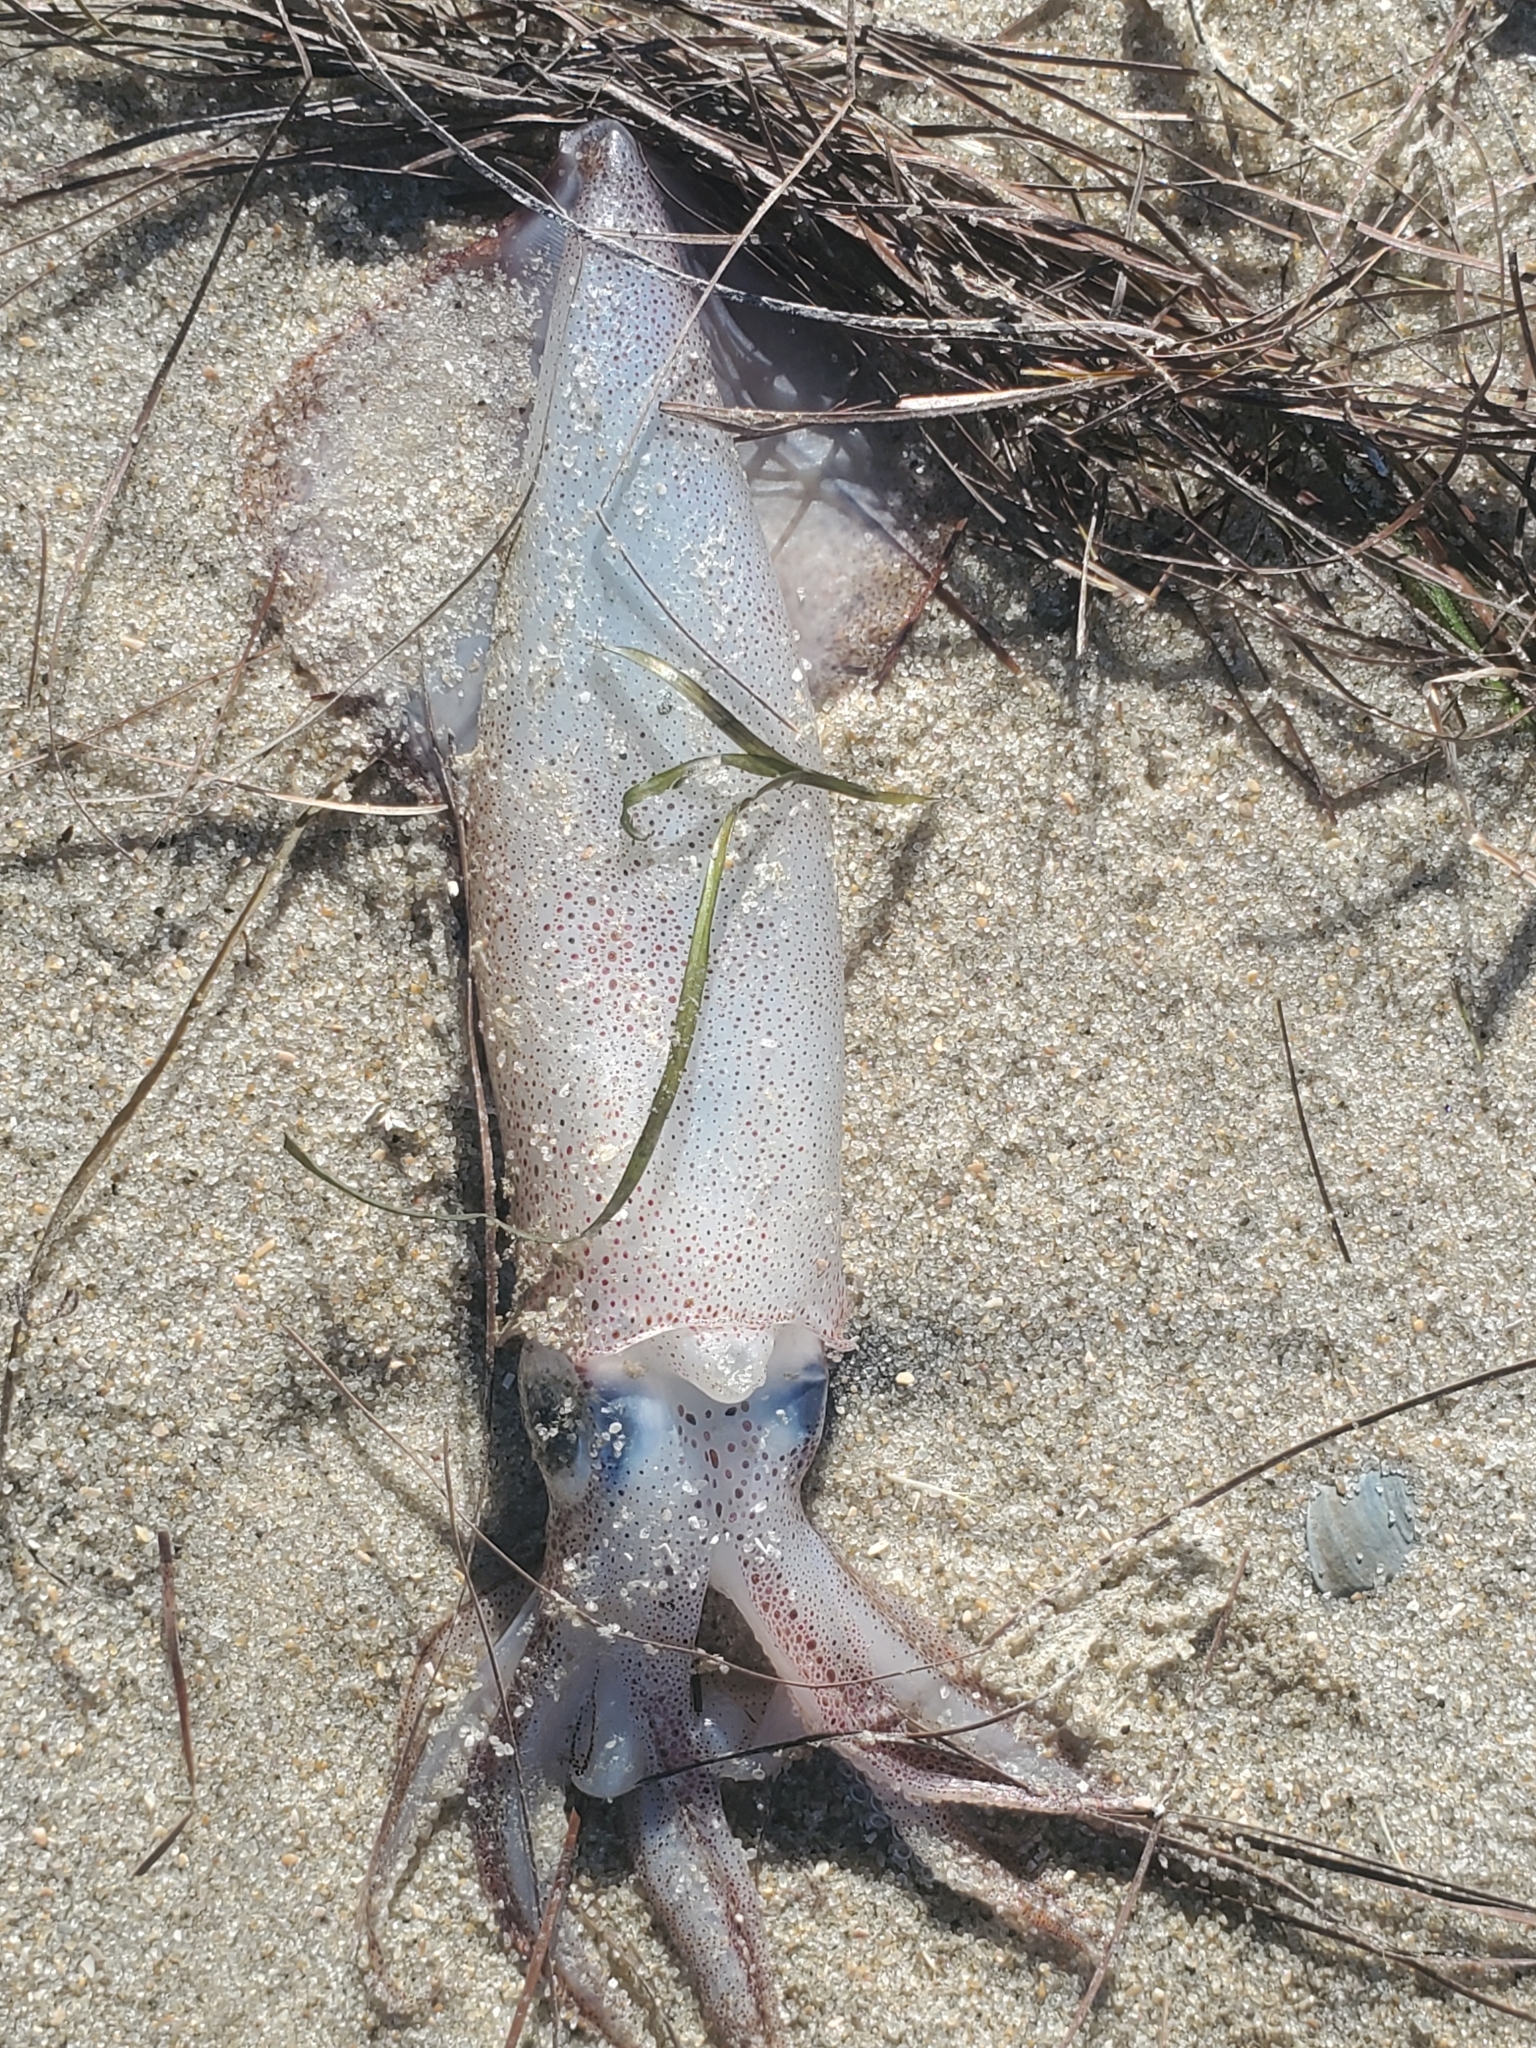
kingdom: Animalia
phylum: Mollusca
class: Cephalopoda
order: Myopsida
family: Loliginidae
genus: Doryteuthis
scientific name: Doryteuthis pealeii
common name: Long-finned inshore squid
